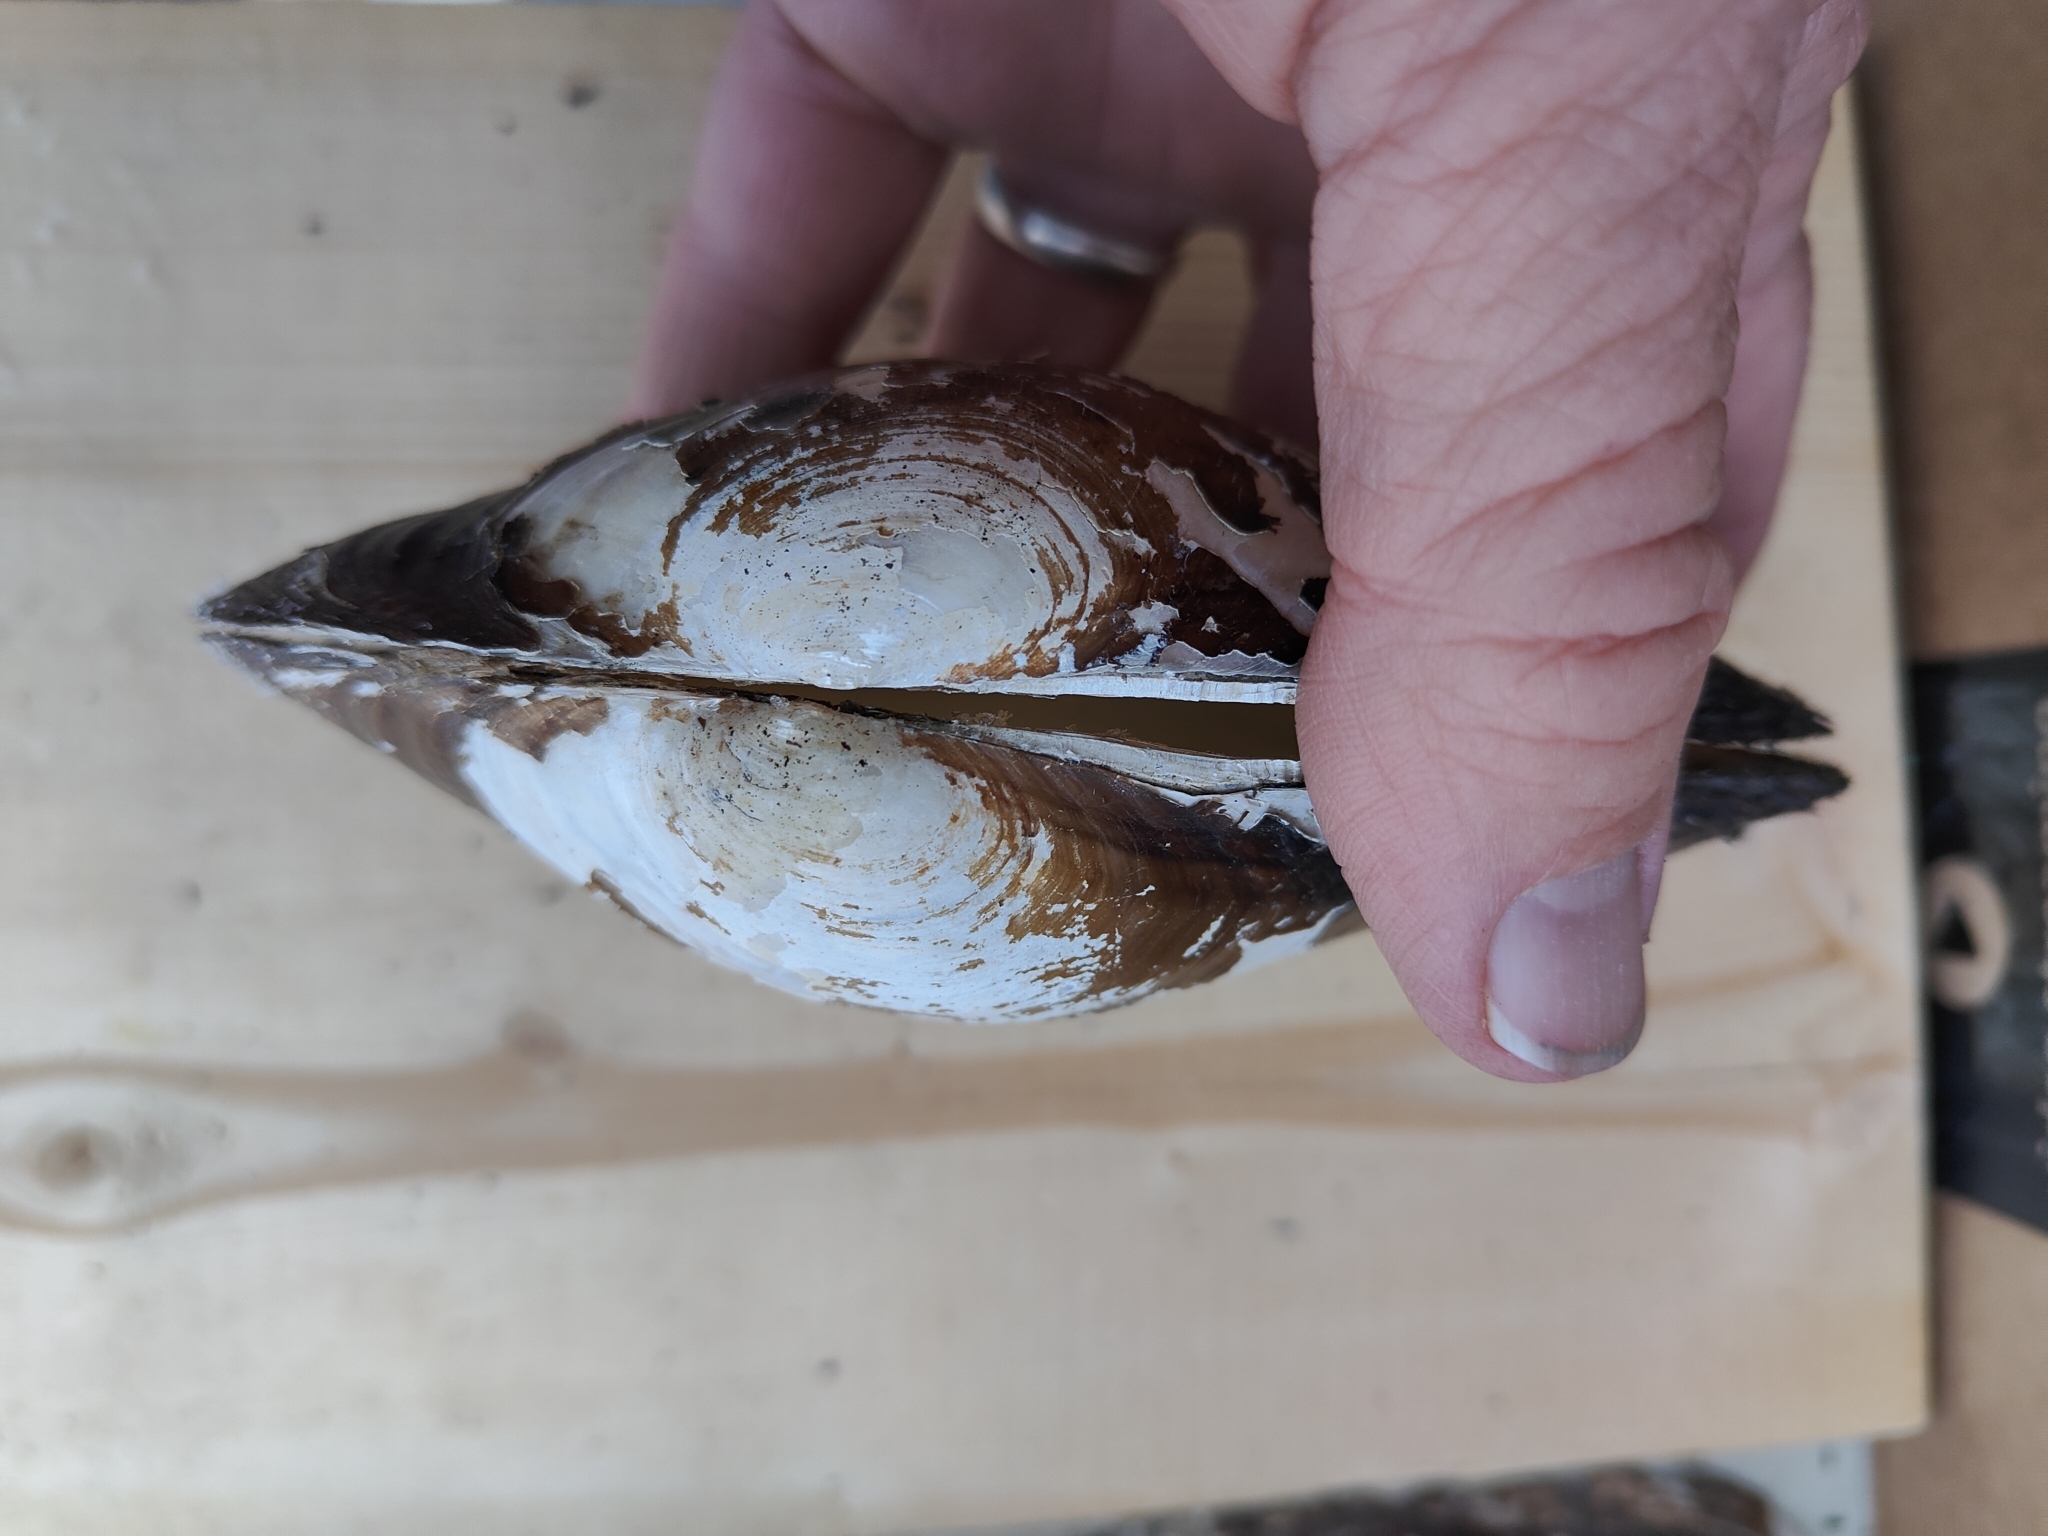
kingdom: Animalia
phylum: Mollusca
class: Bivalvia
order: Unionida
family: Unionidae
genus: Pyganodon
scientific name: Pyganodon grandis
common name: Giant floater
